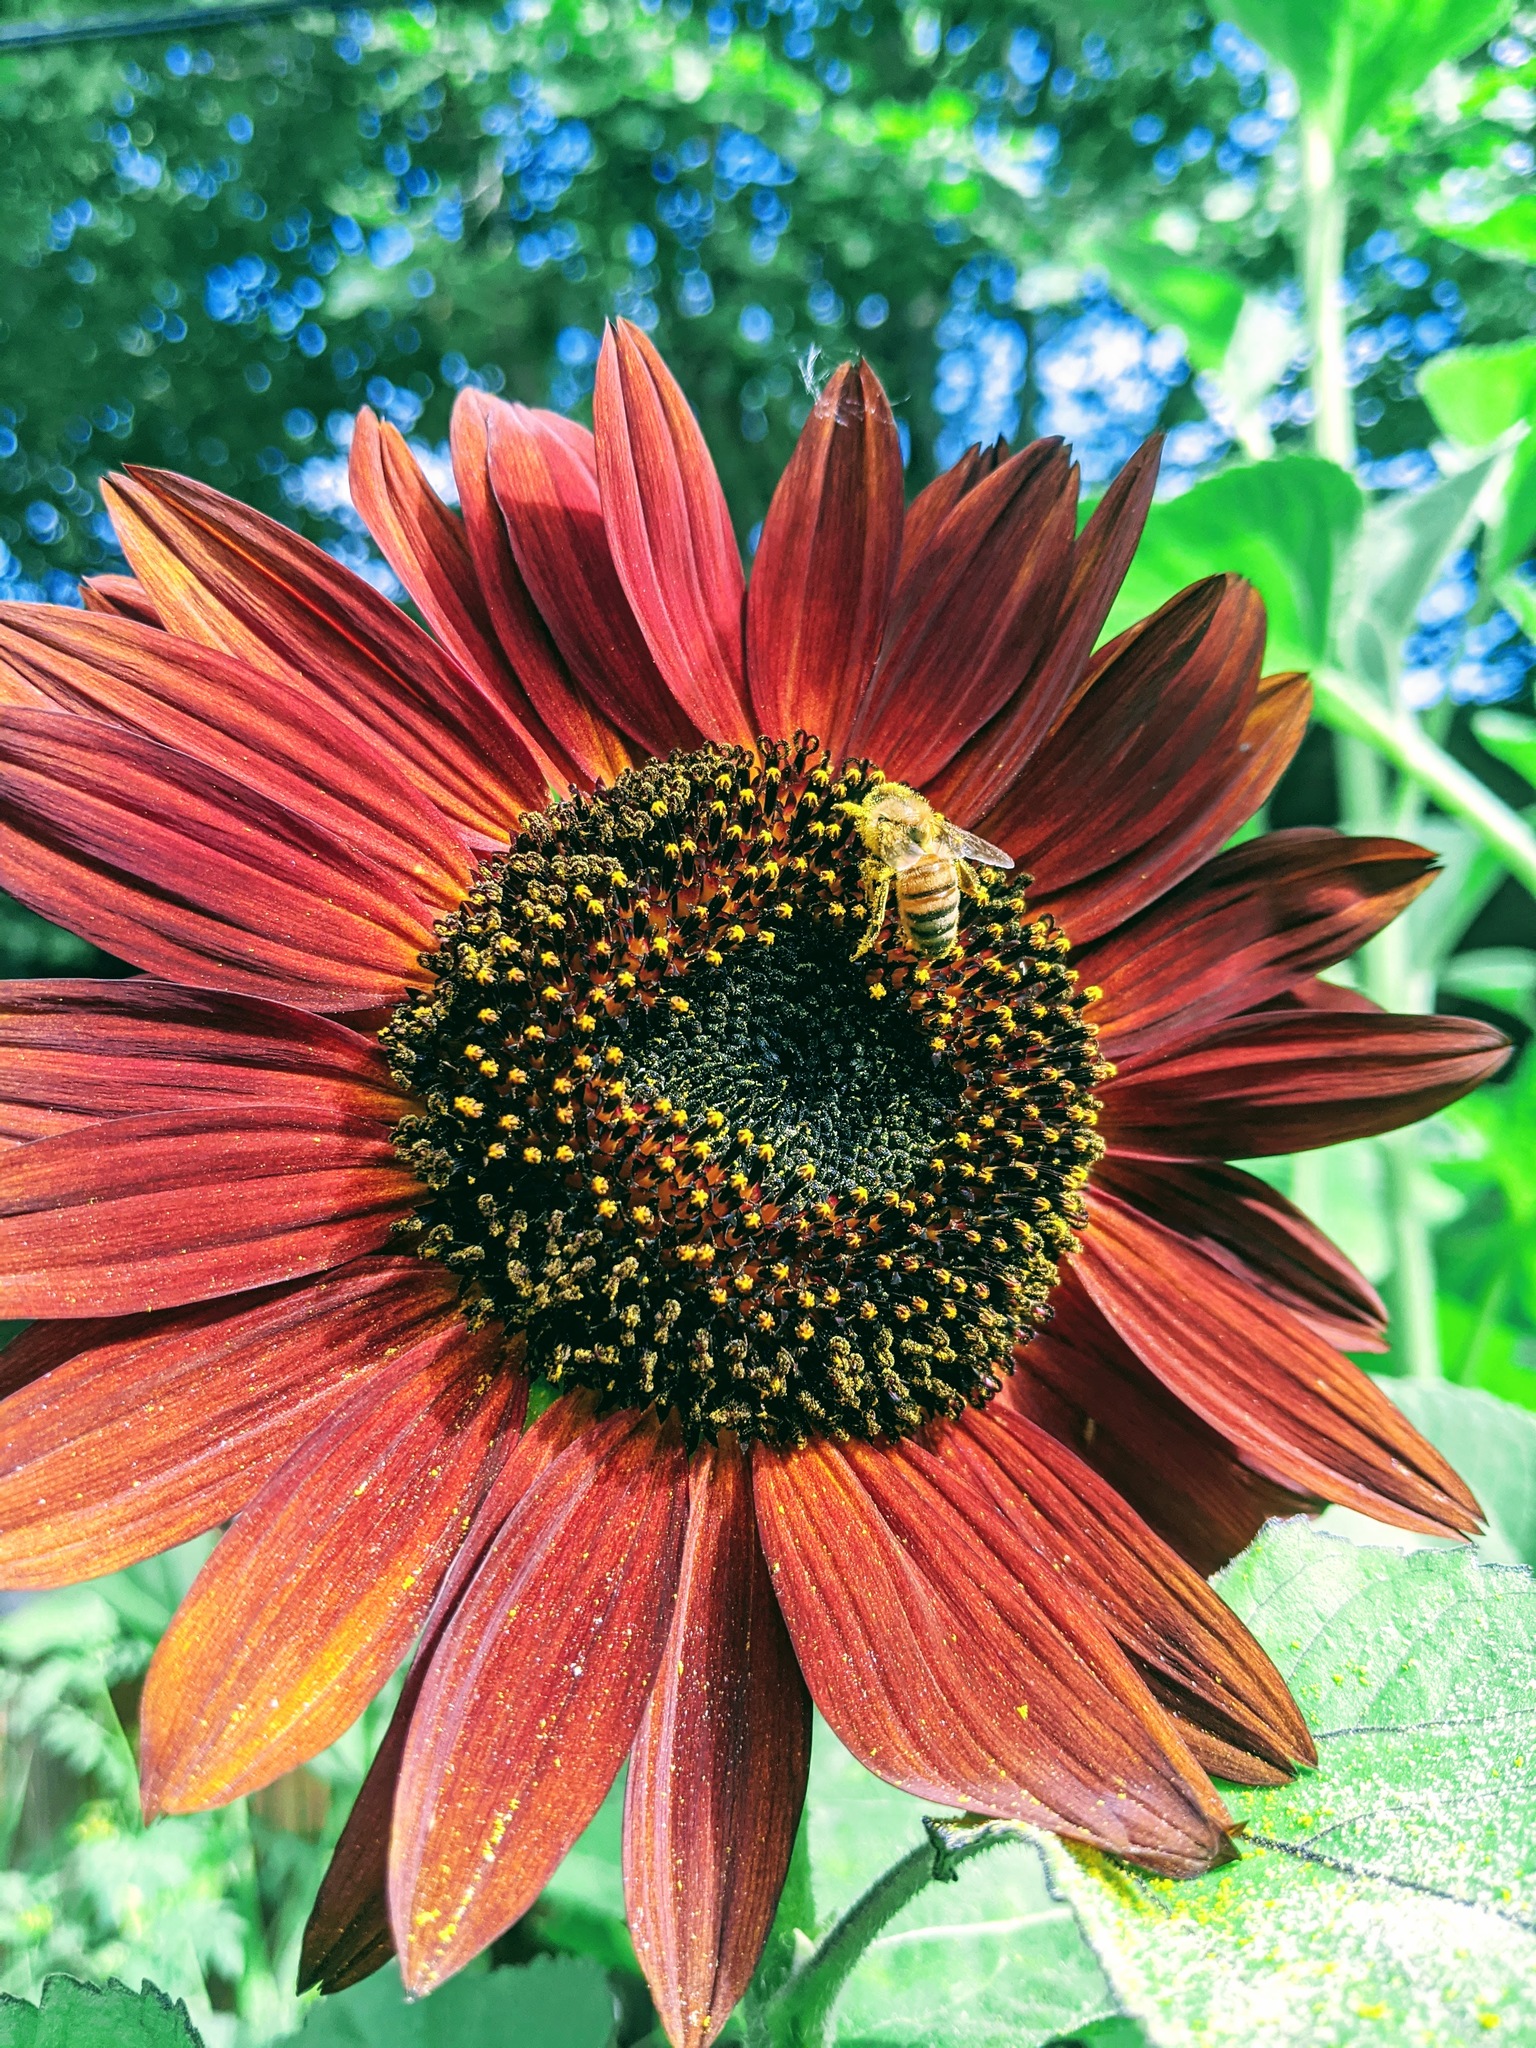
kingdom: Animalia
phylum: Arthropoda
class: Insecta
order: Hymenoptera
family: Apidae
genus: Apis
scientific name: Apis mellifera
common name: Honey bee
